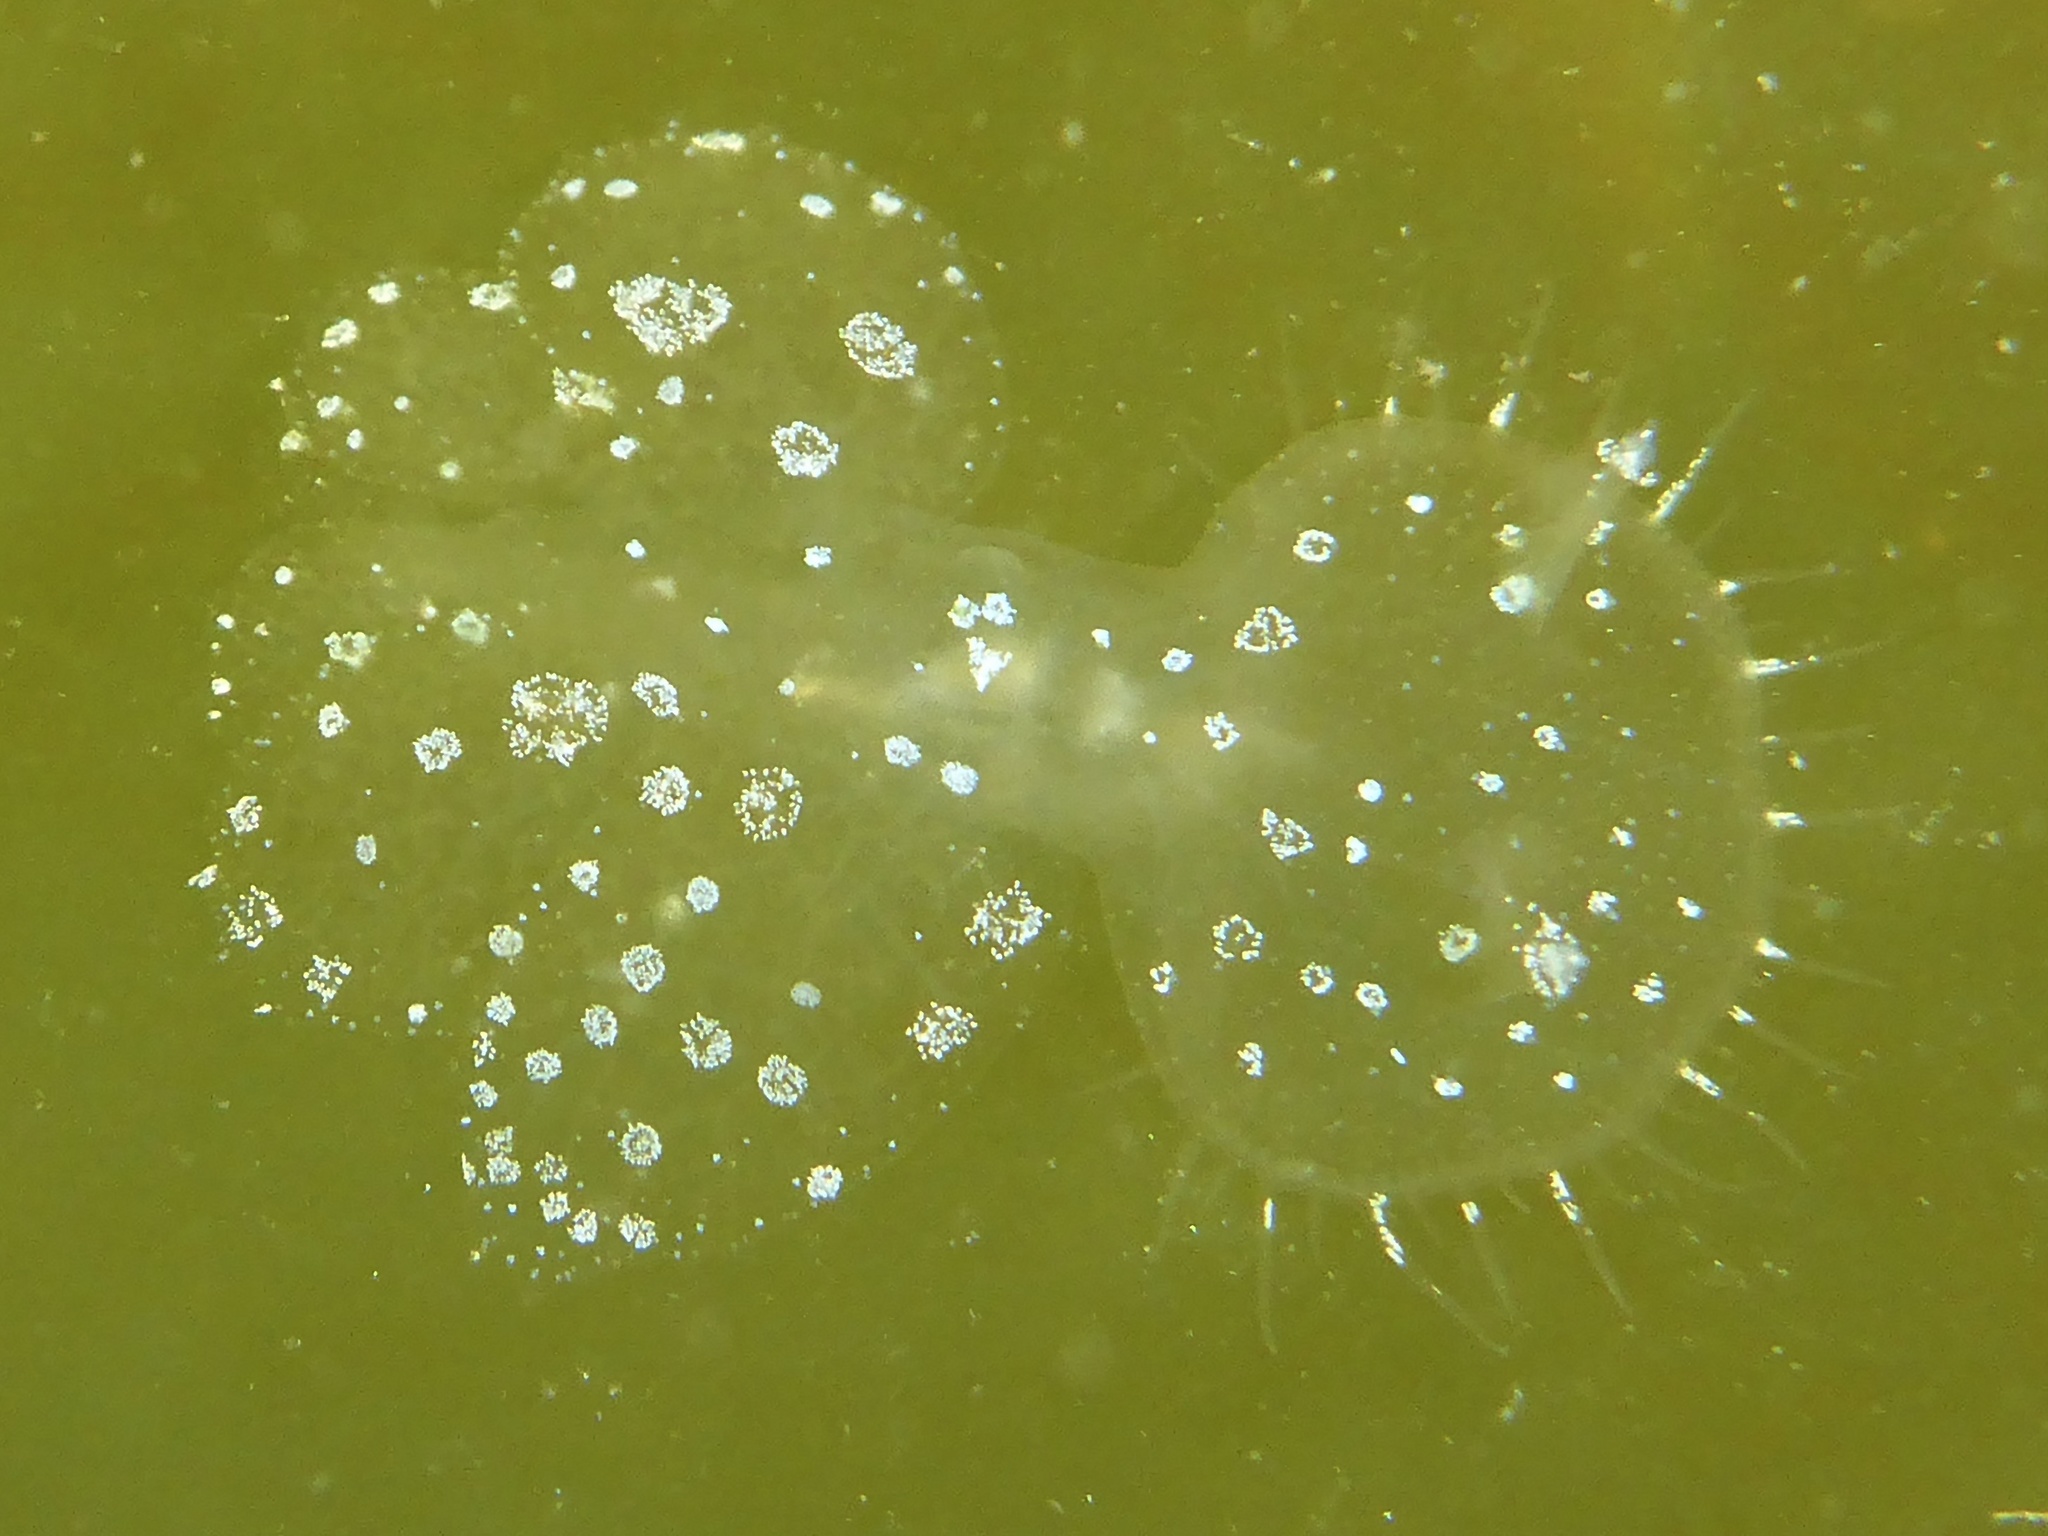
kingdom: Animalia
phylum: Mollusca
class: Gastropoda
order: Nudibranchia
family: Tethydidae
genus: Melibe
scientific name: Melibe leonina
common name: Lion nudibranch
